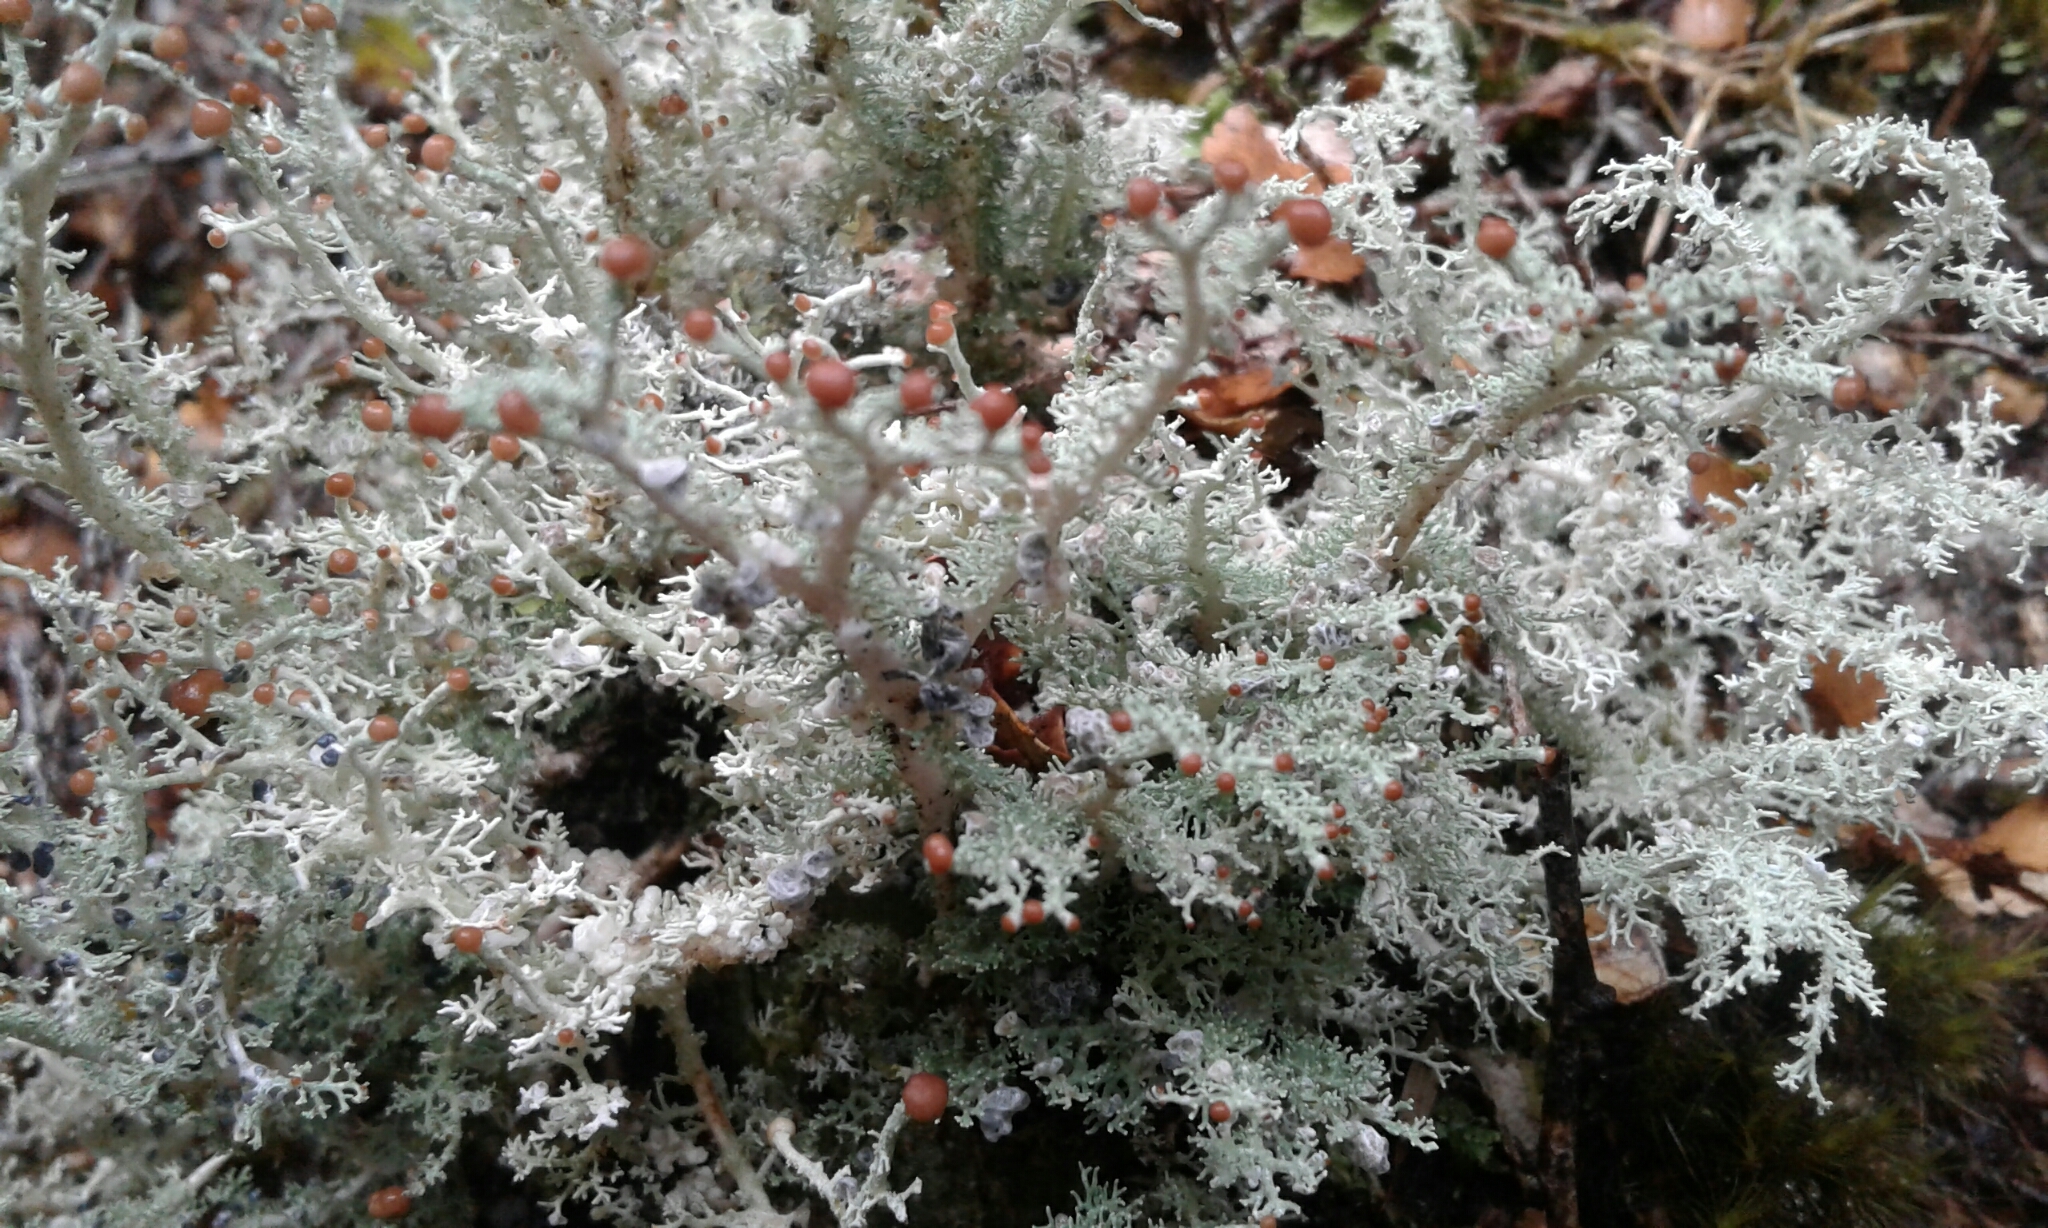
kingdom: Fungi
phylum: Ascomycota
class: Lecanoromycetes
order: Lecanorales
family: Stereocaulaceae
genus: Stereocaulon
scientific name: Stereocaulon
